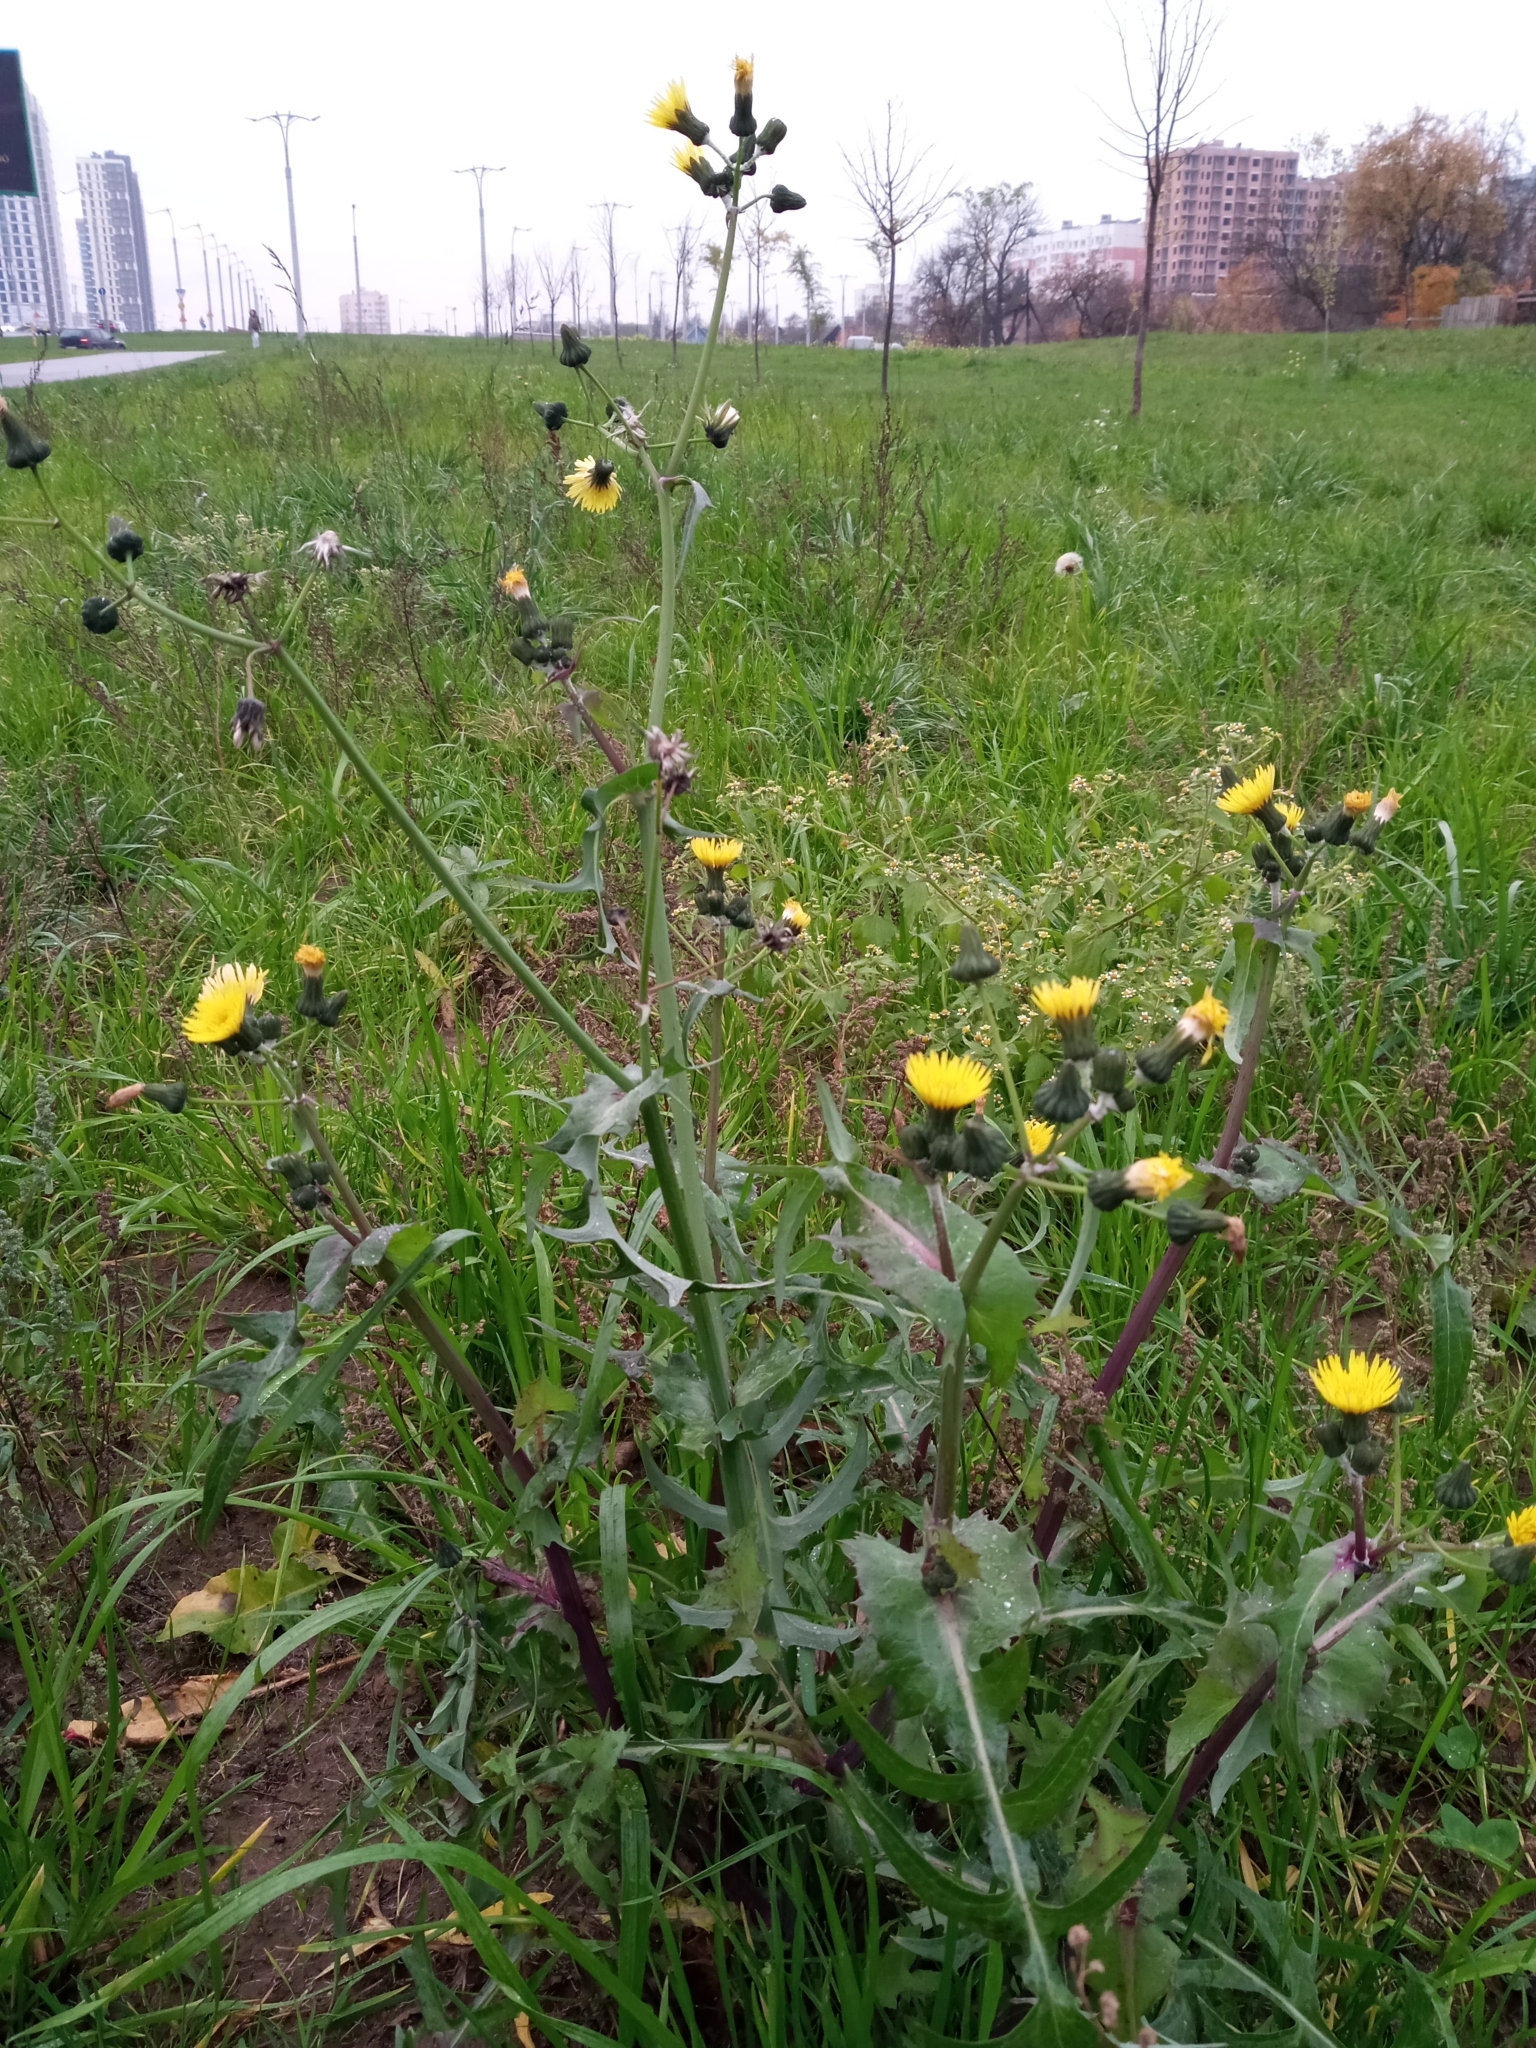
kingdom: Plantae
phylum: Tracheophyta
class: Magnoliopsida
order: Asterales
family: Asteraceae
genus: Sonchus
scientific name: Sonchus oleraceus
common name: Common sowthistle
